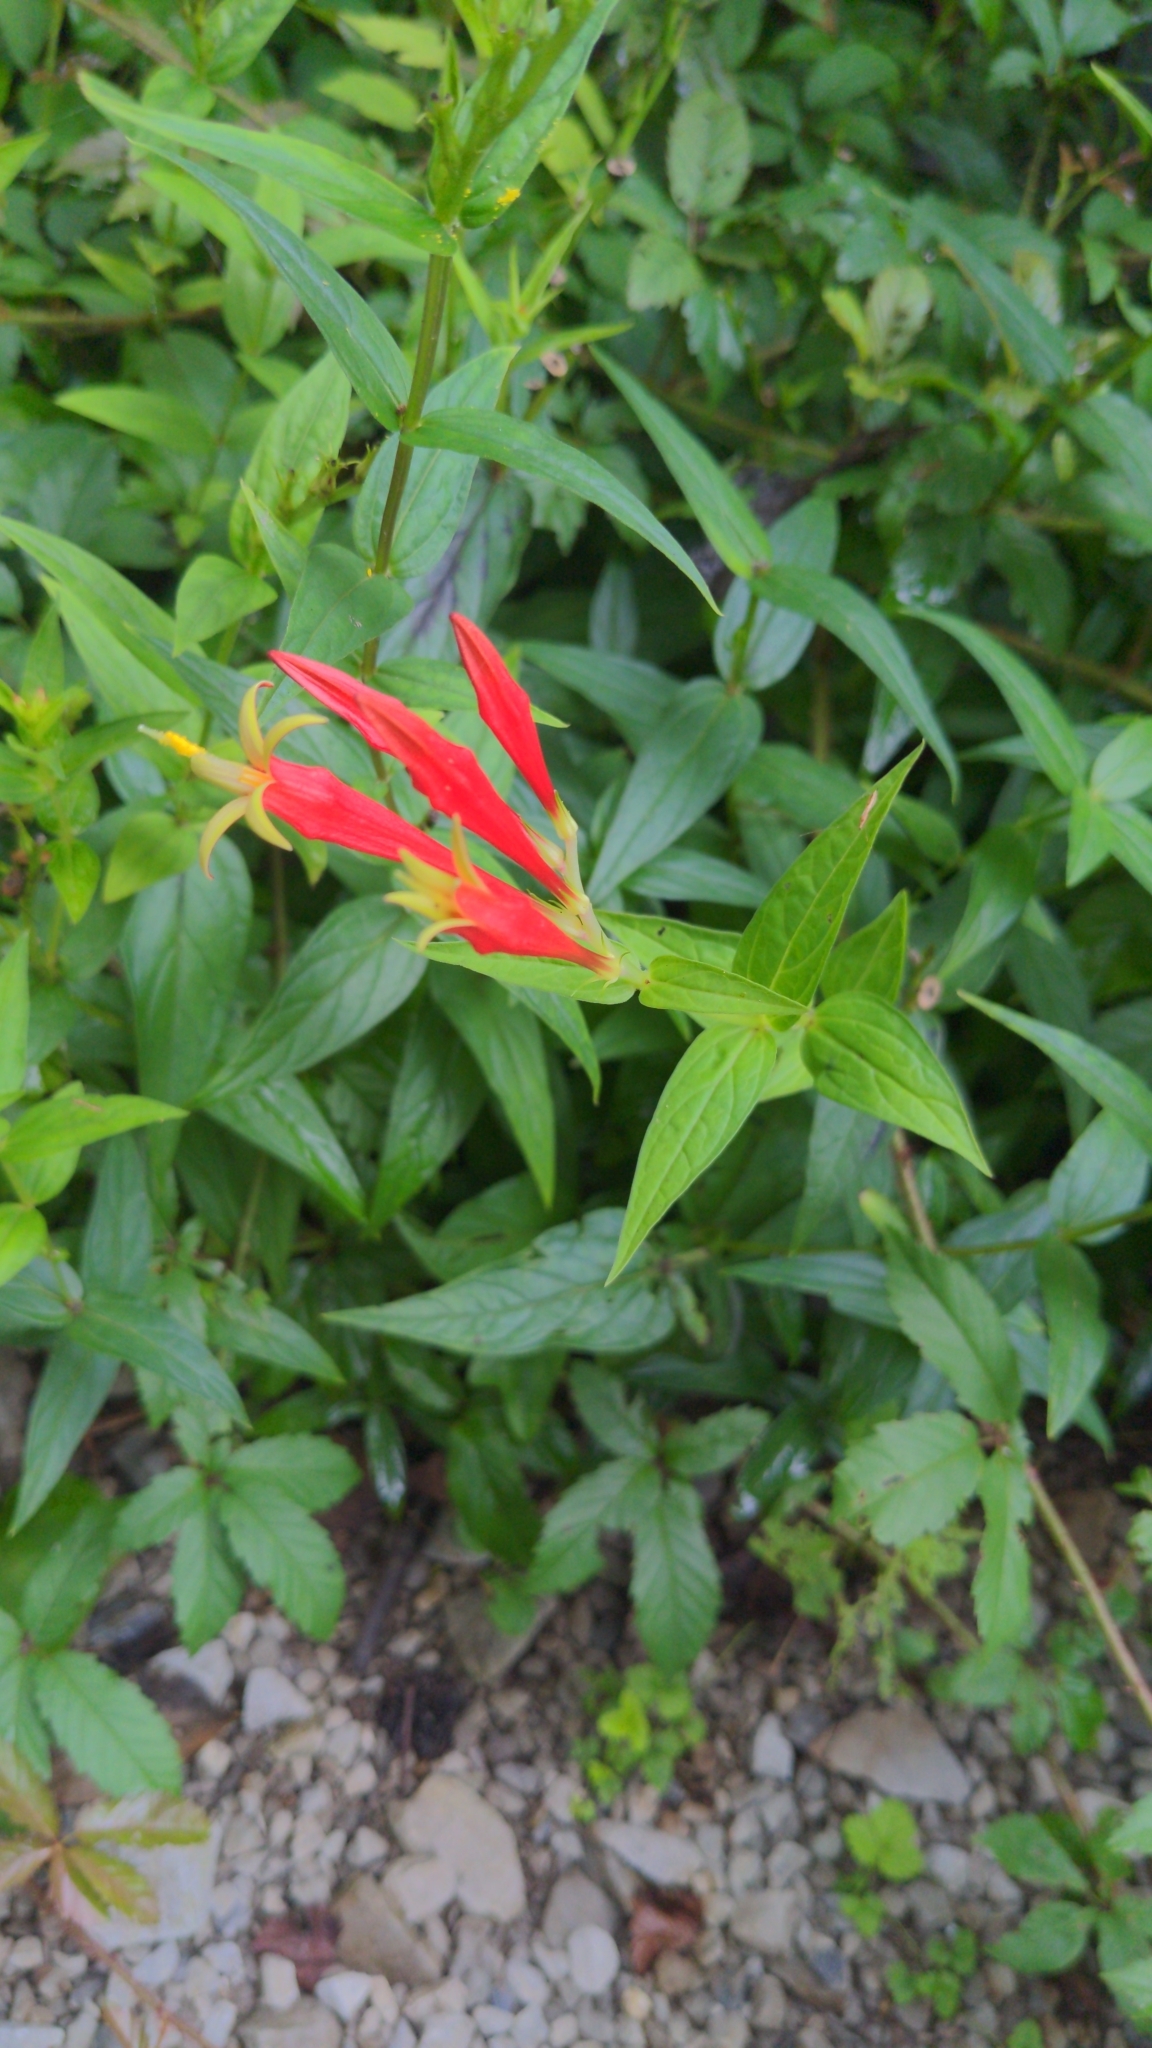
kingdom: Plantae
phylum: Tracheophyta
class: Magnoliopsida
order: Gentianales
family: Loganiaceae
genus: Spigelia
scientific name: Spigelia marilandica
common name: Indian-pink
